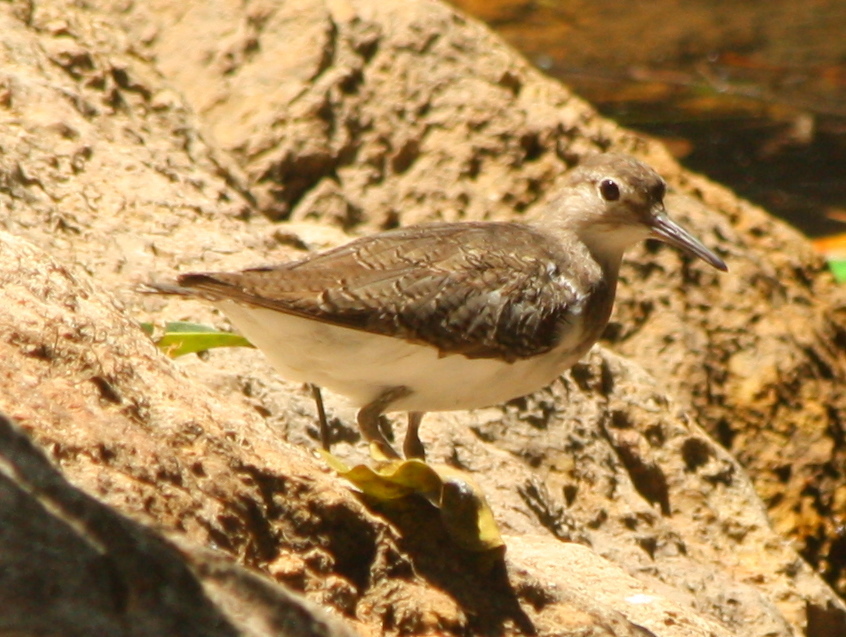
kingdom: Animalia
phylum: Chordata
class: Aves
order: Charadriiformes
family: Scolopacidae
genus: Actitis
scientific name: Actitis hypoleucos
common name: Common sandpiper
